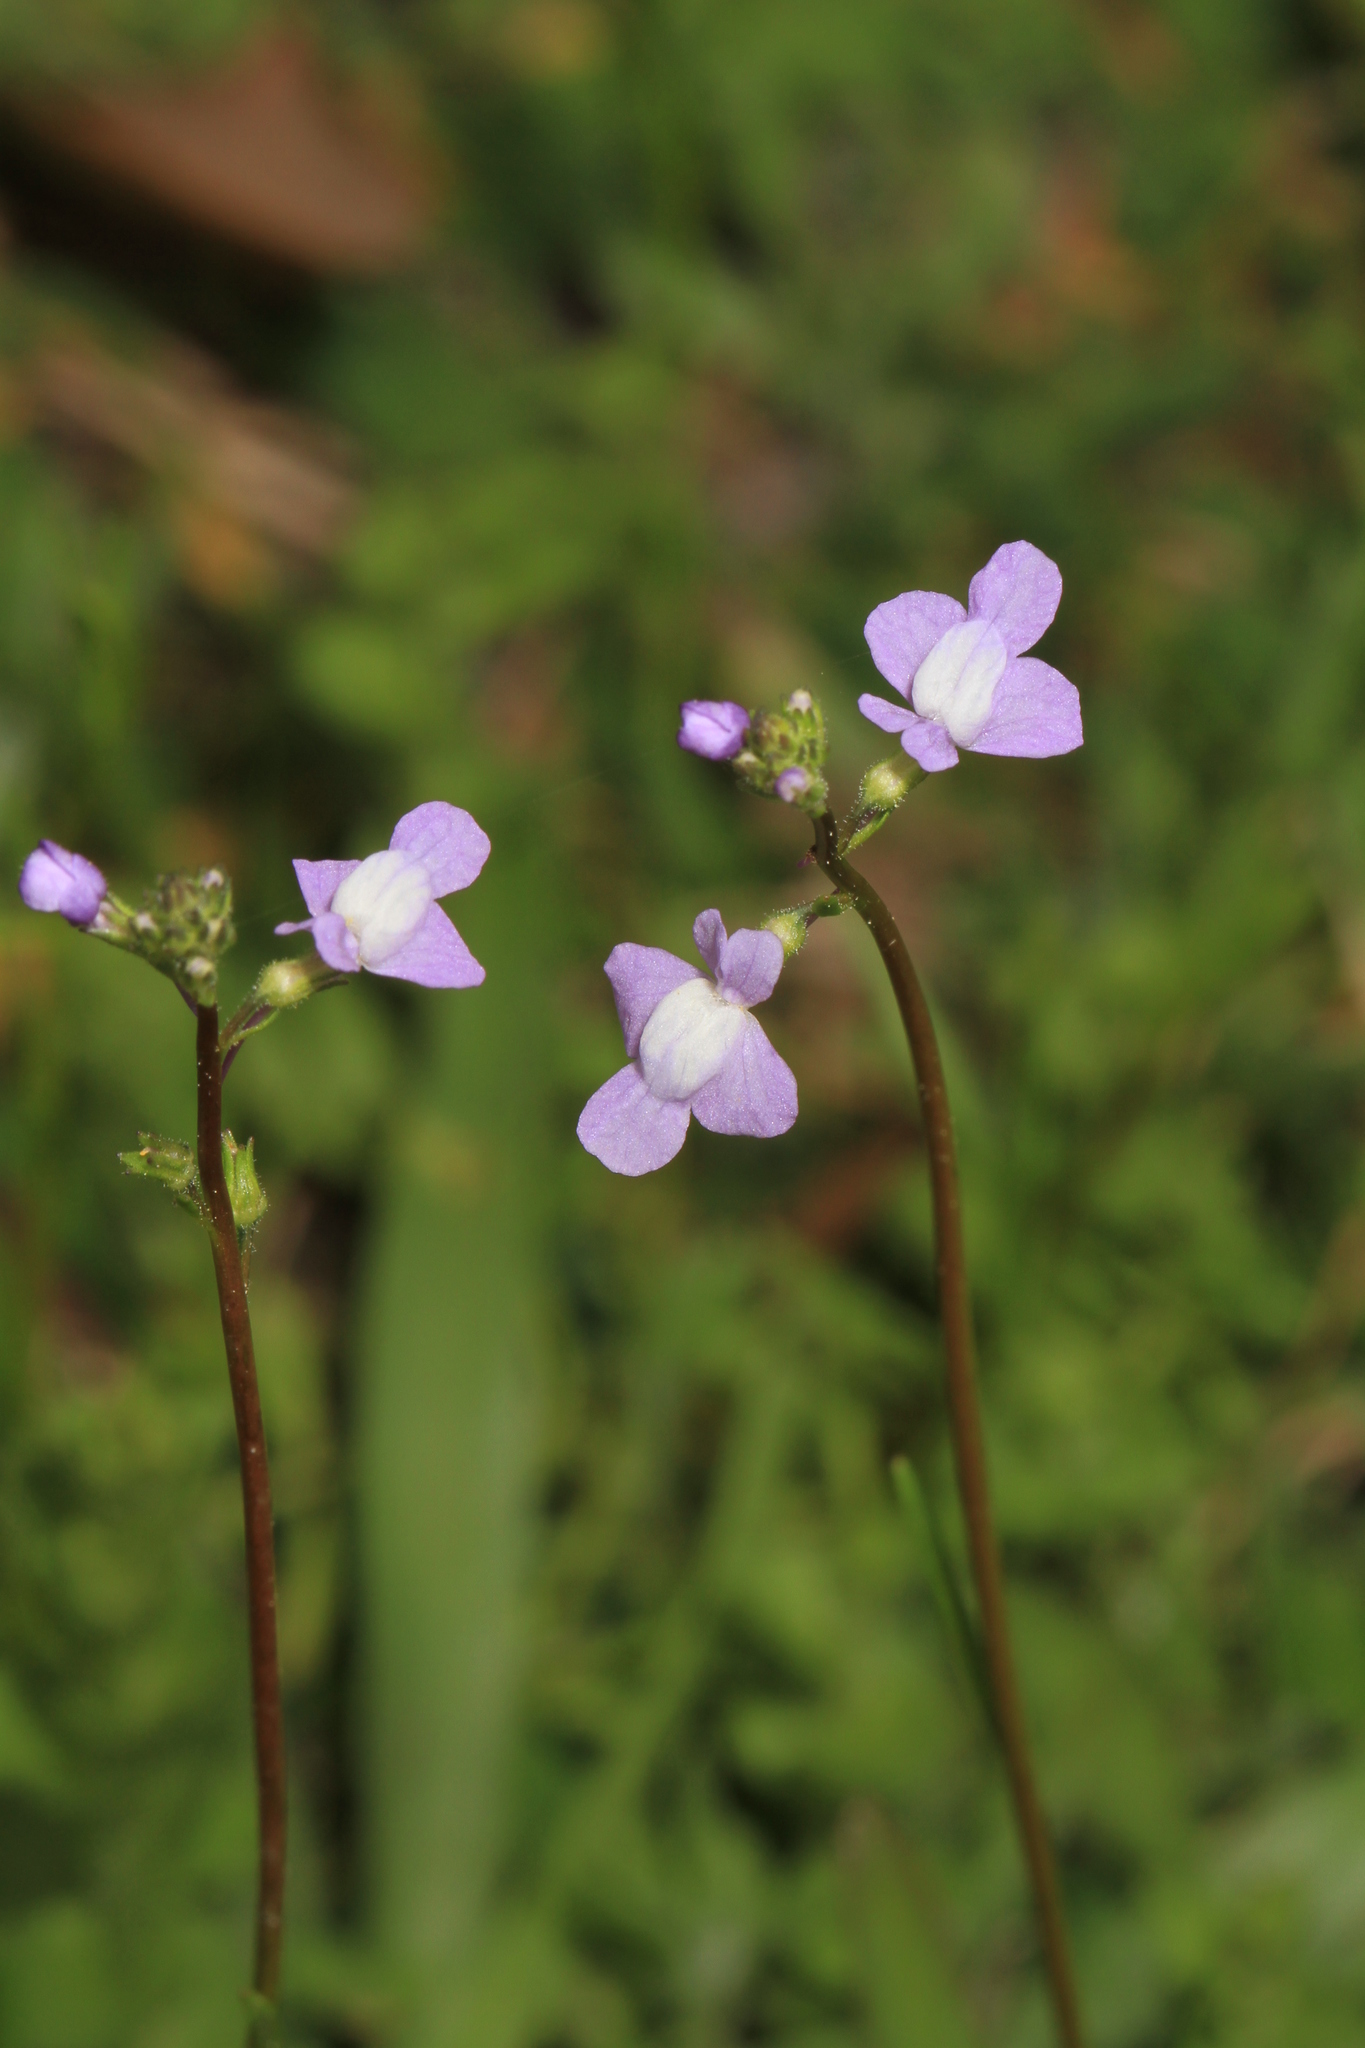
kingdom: Plantae
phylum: Tracheophyta
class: Magnoliopsida
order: Lamiales
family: Plantaginaceae
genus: Nuttallanthus
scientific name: Nuttallanthus floridanus
